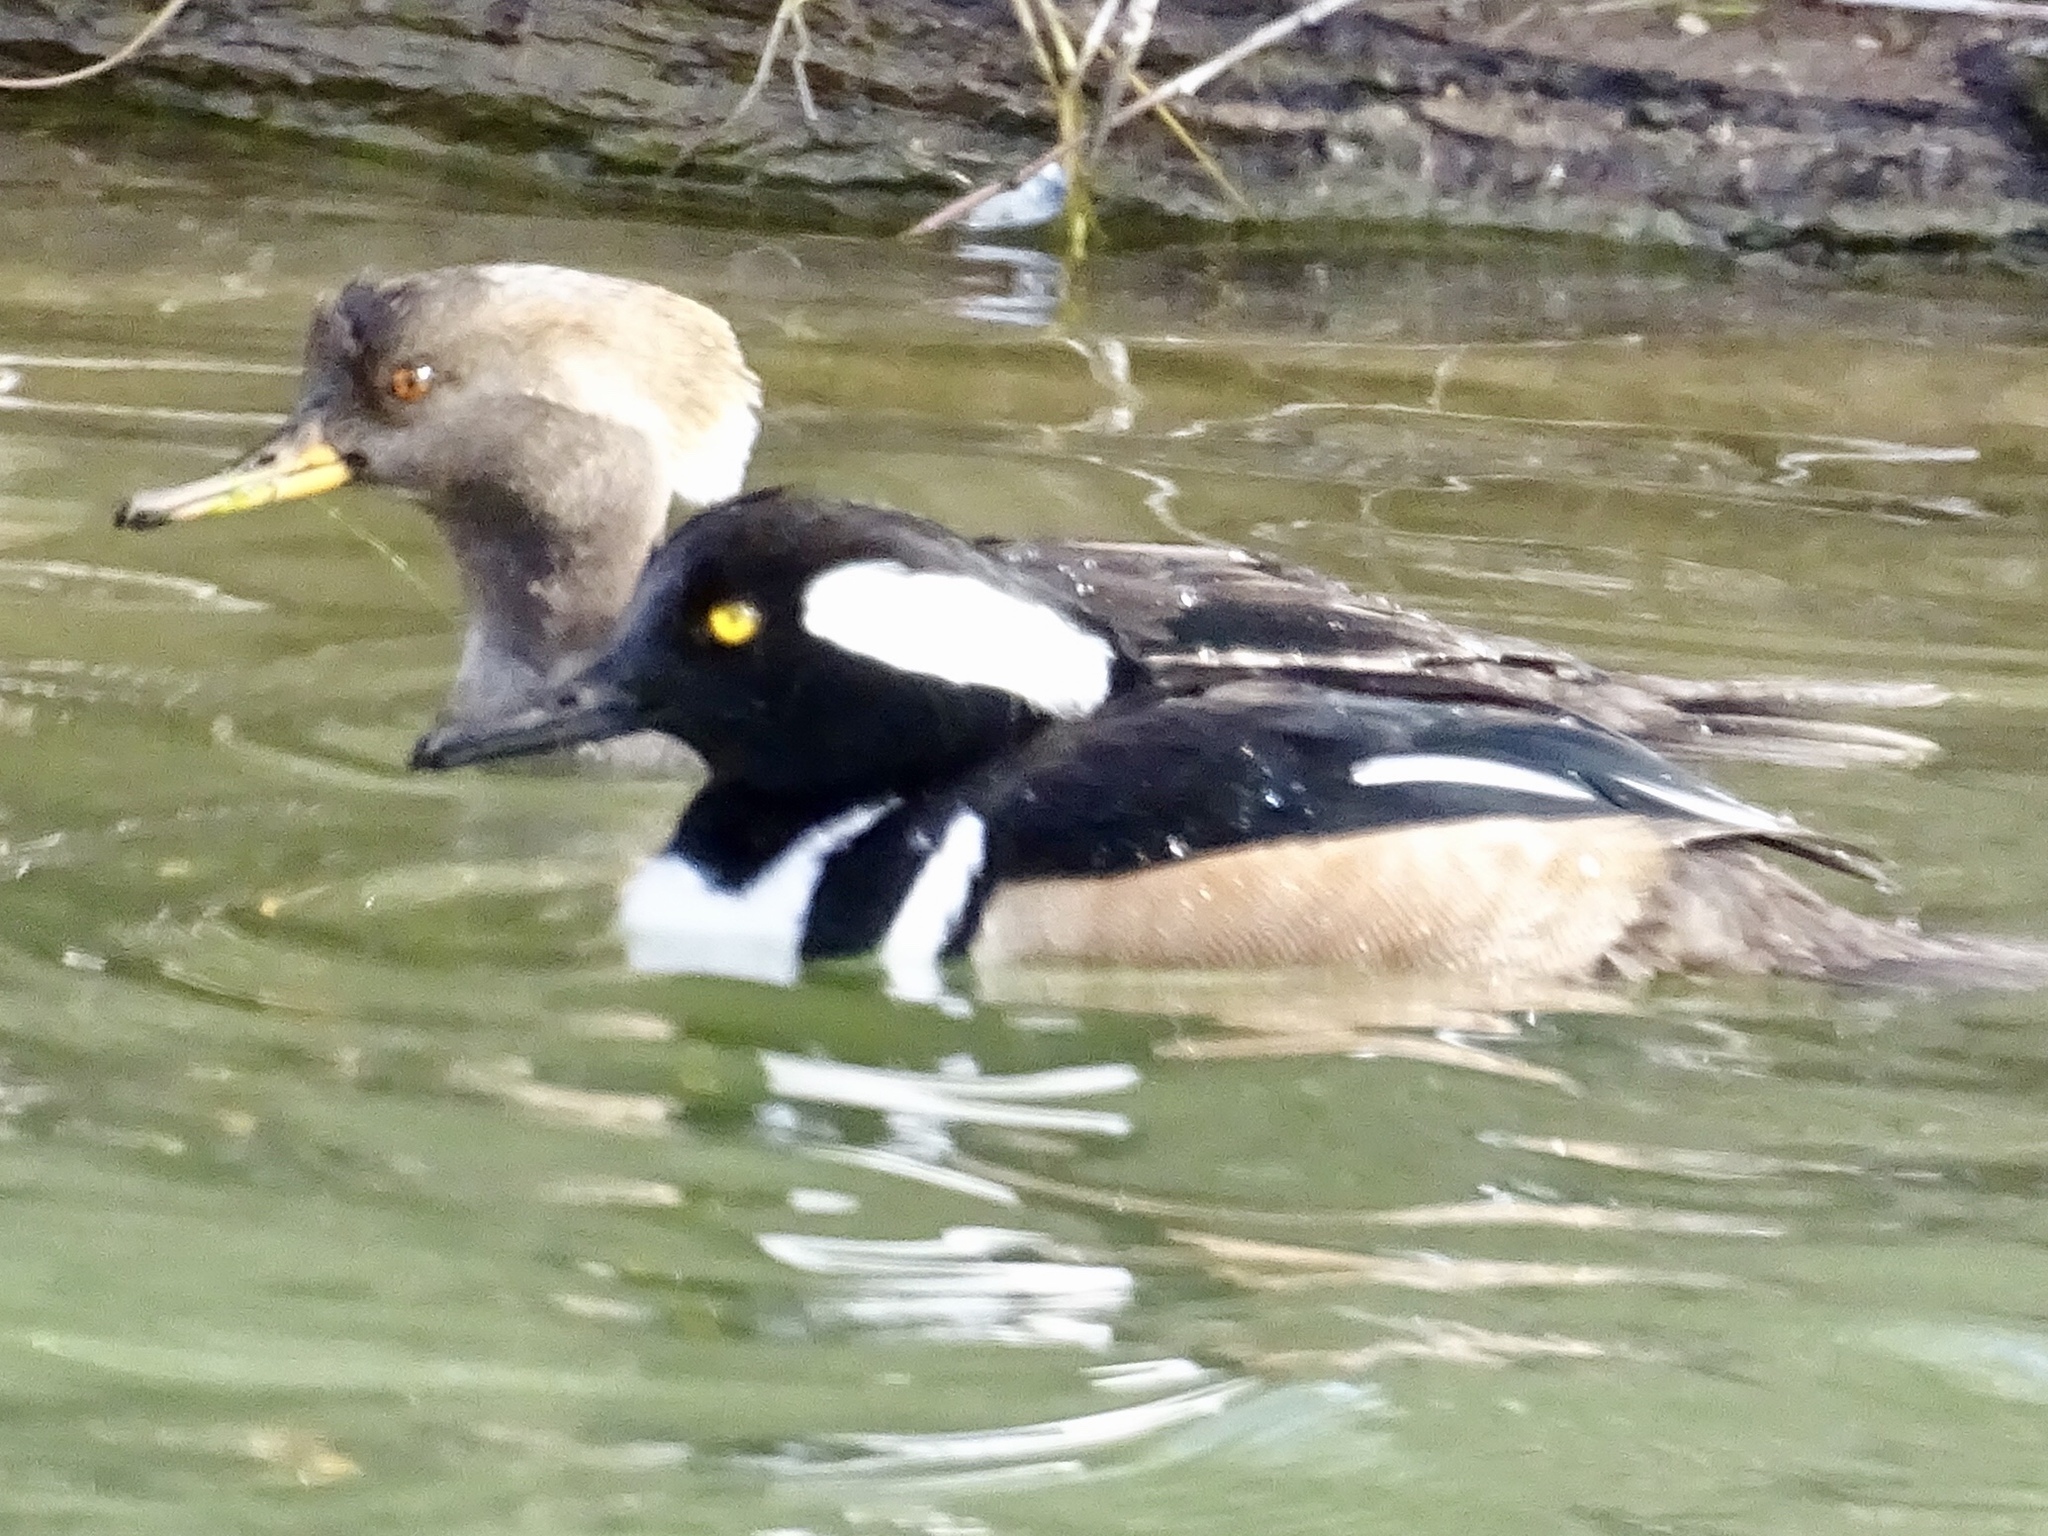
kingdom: Animalia
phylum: Chordata
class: Aves
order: Anseriformes
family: Anatidae
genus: Lophodytes
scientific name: Lophodytes cucullatus
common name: Hooded merganser
